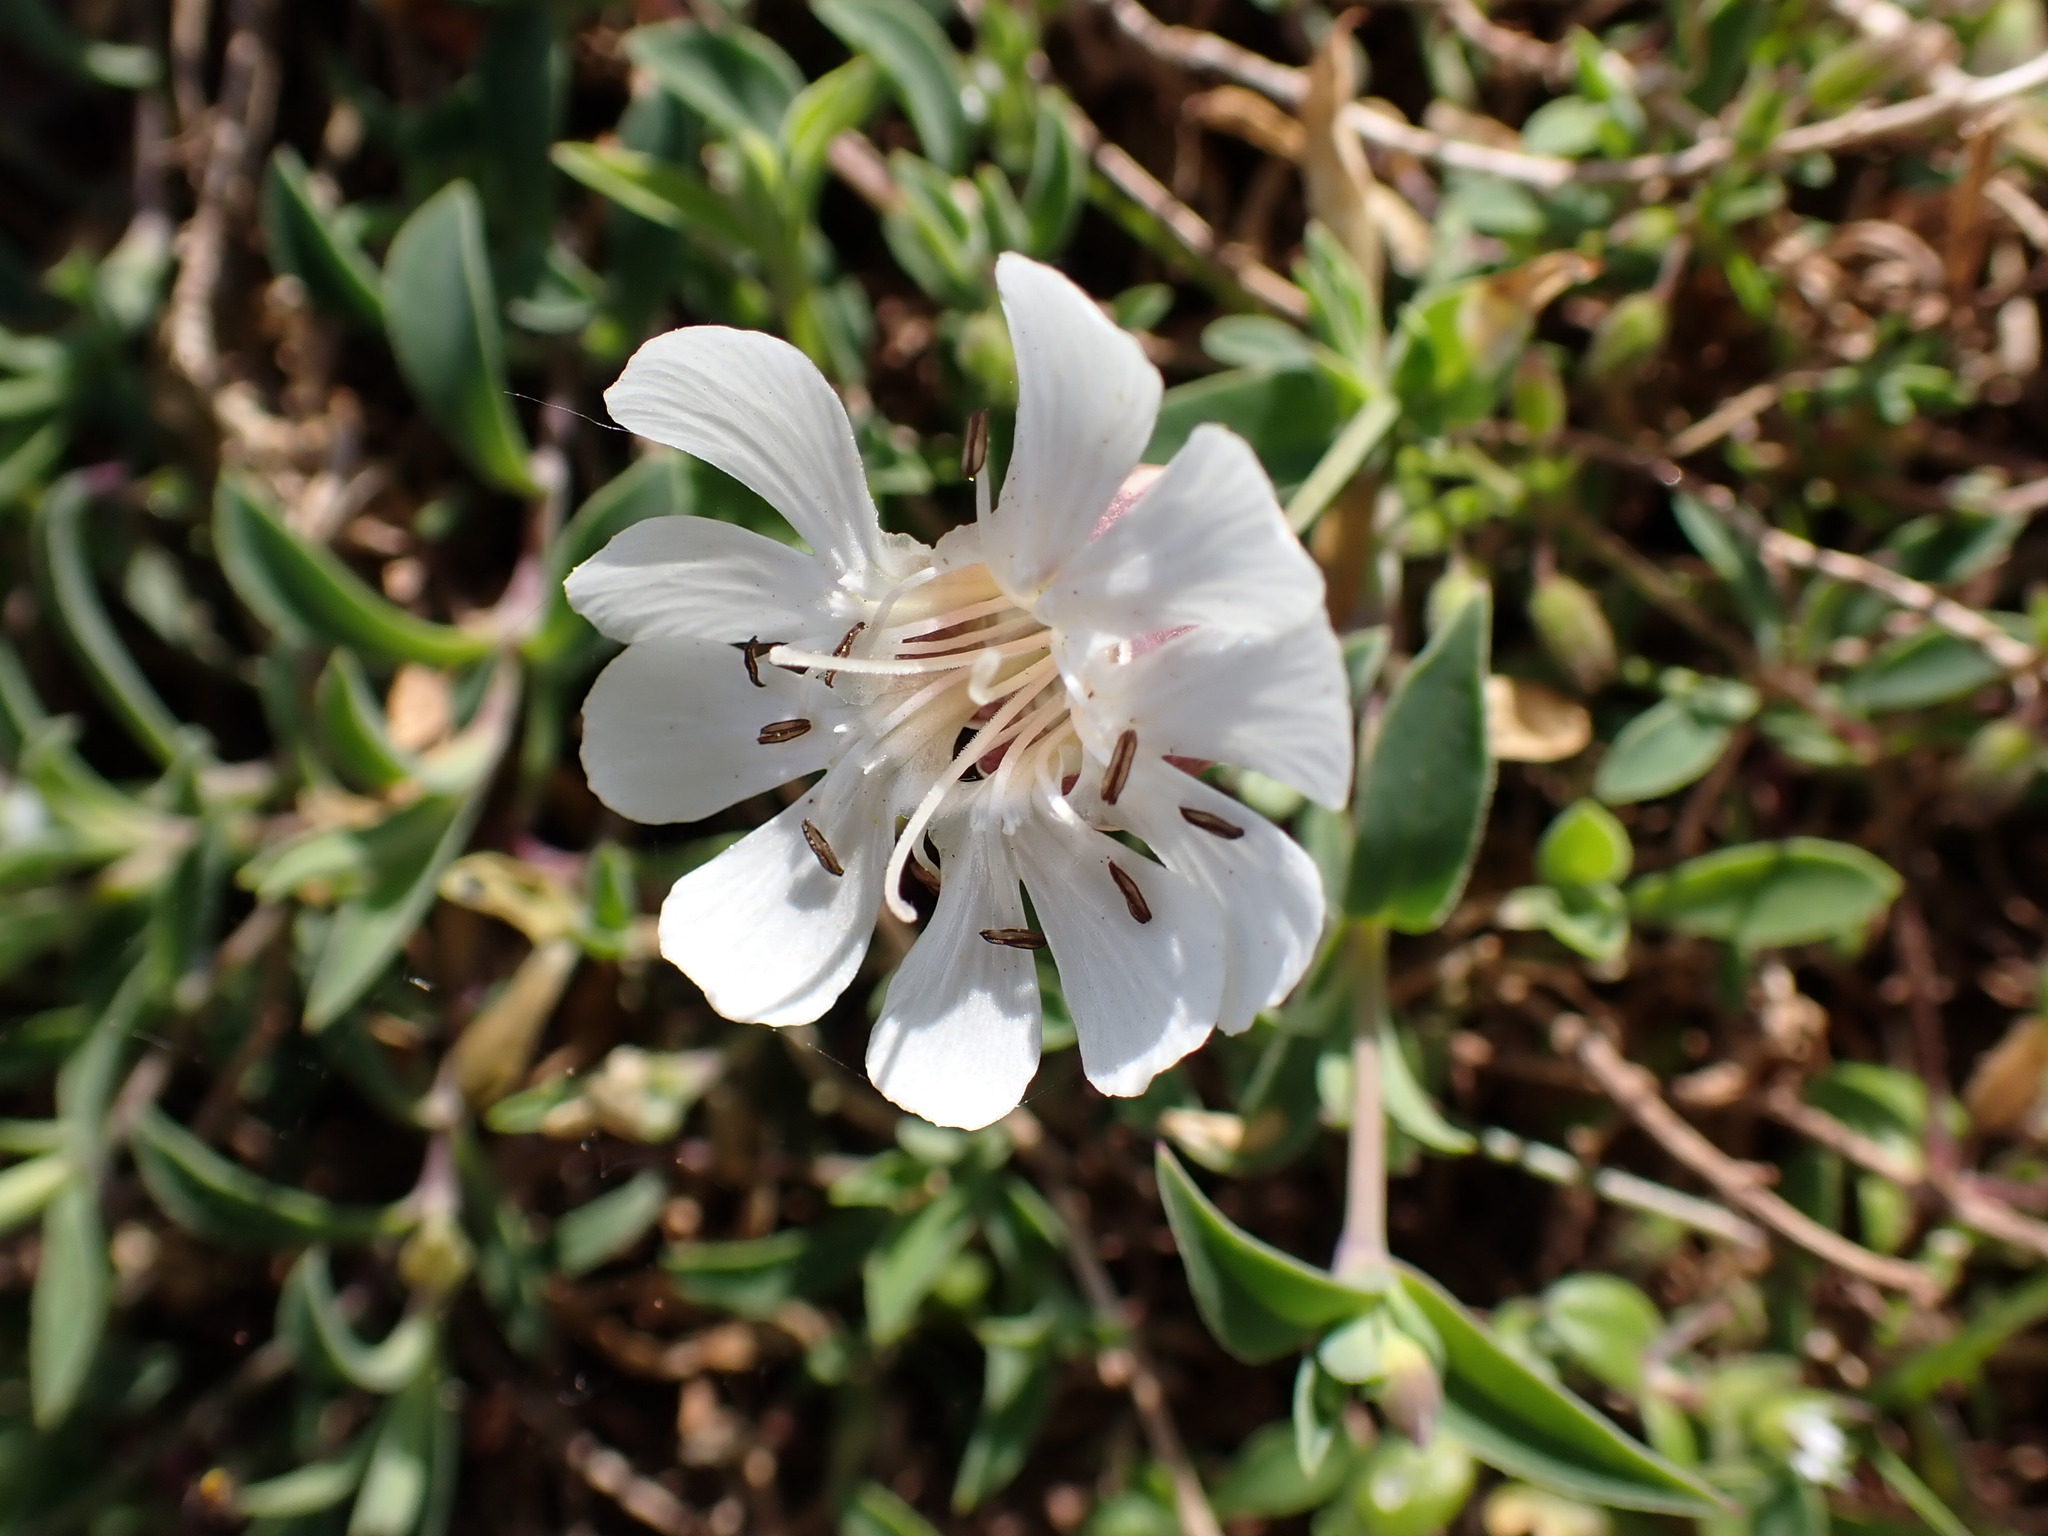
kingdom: Plantae
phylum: Tracheophyta
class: Magnoliopsida
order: Caryophyllales
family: Caryophyllaceae
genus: Silene
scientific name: Silene uniflora
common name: Sea campion
